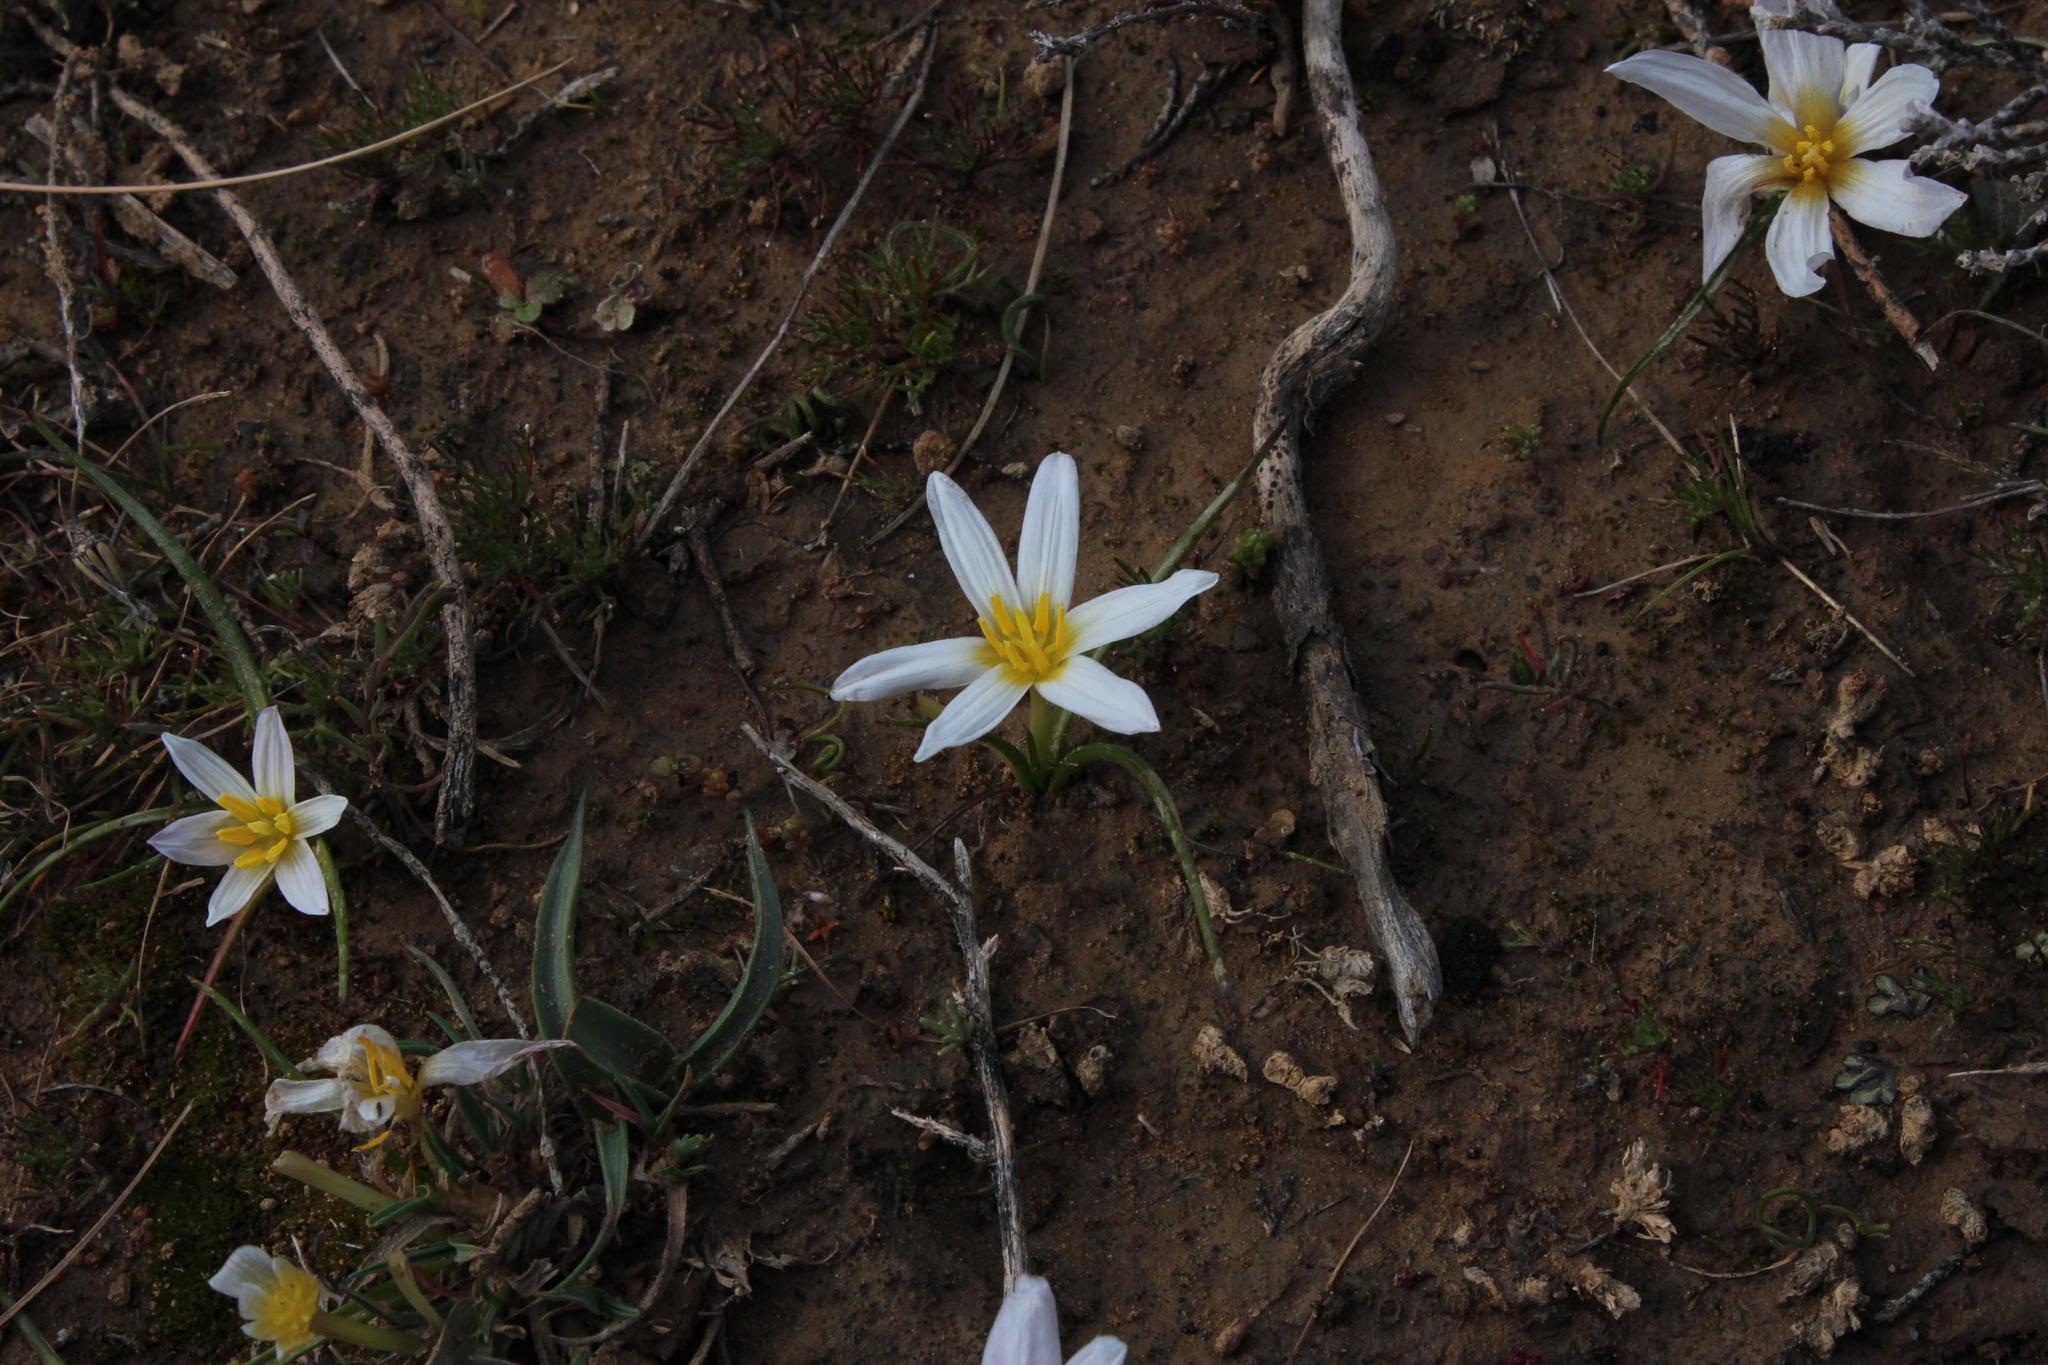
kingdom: Plantae
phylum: Tracheophyta
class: Liliopsida
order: Asparagales
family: Hypoxidaceae
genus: Pauridia
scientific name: Pauridia alticola
